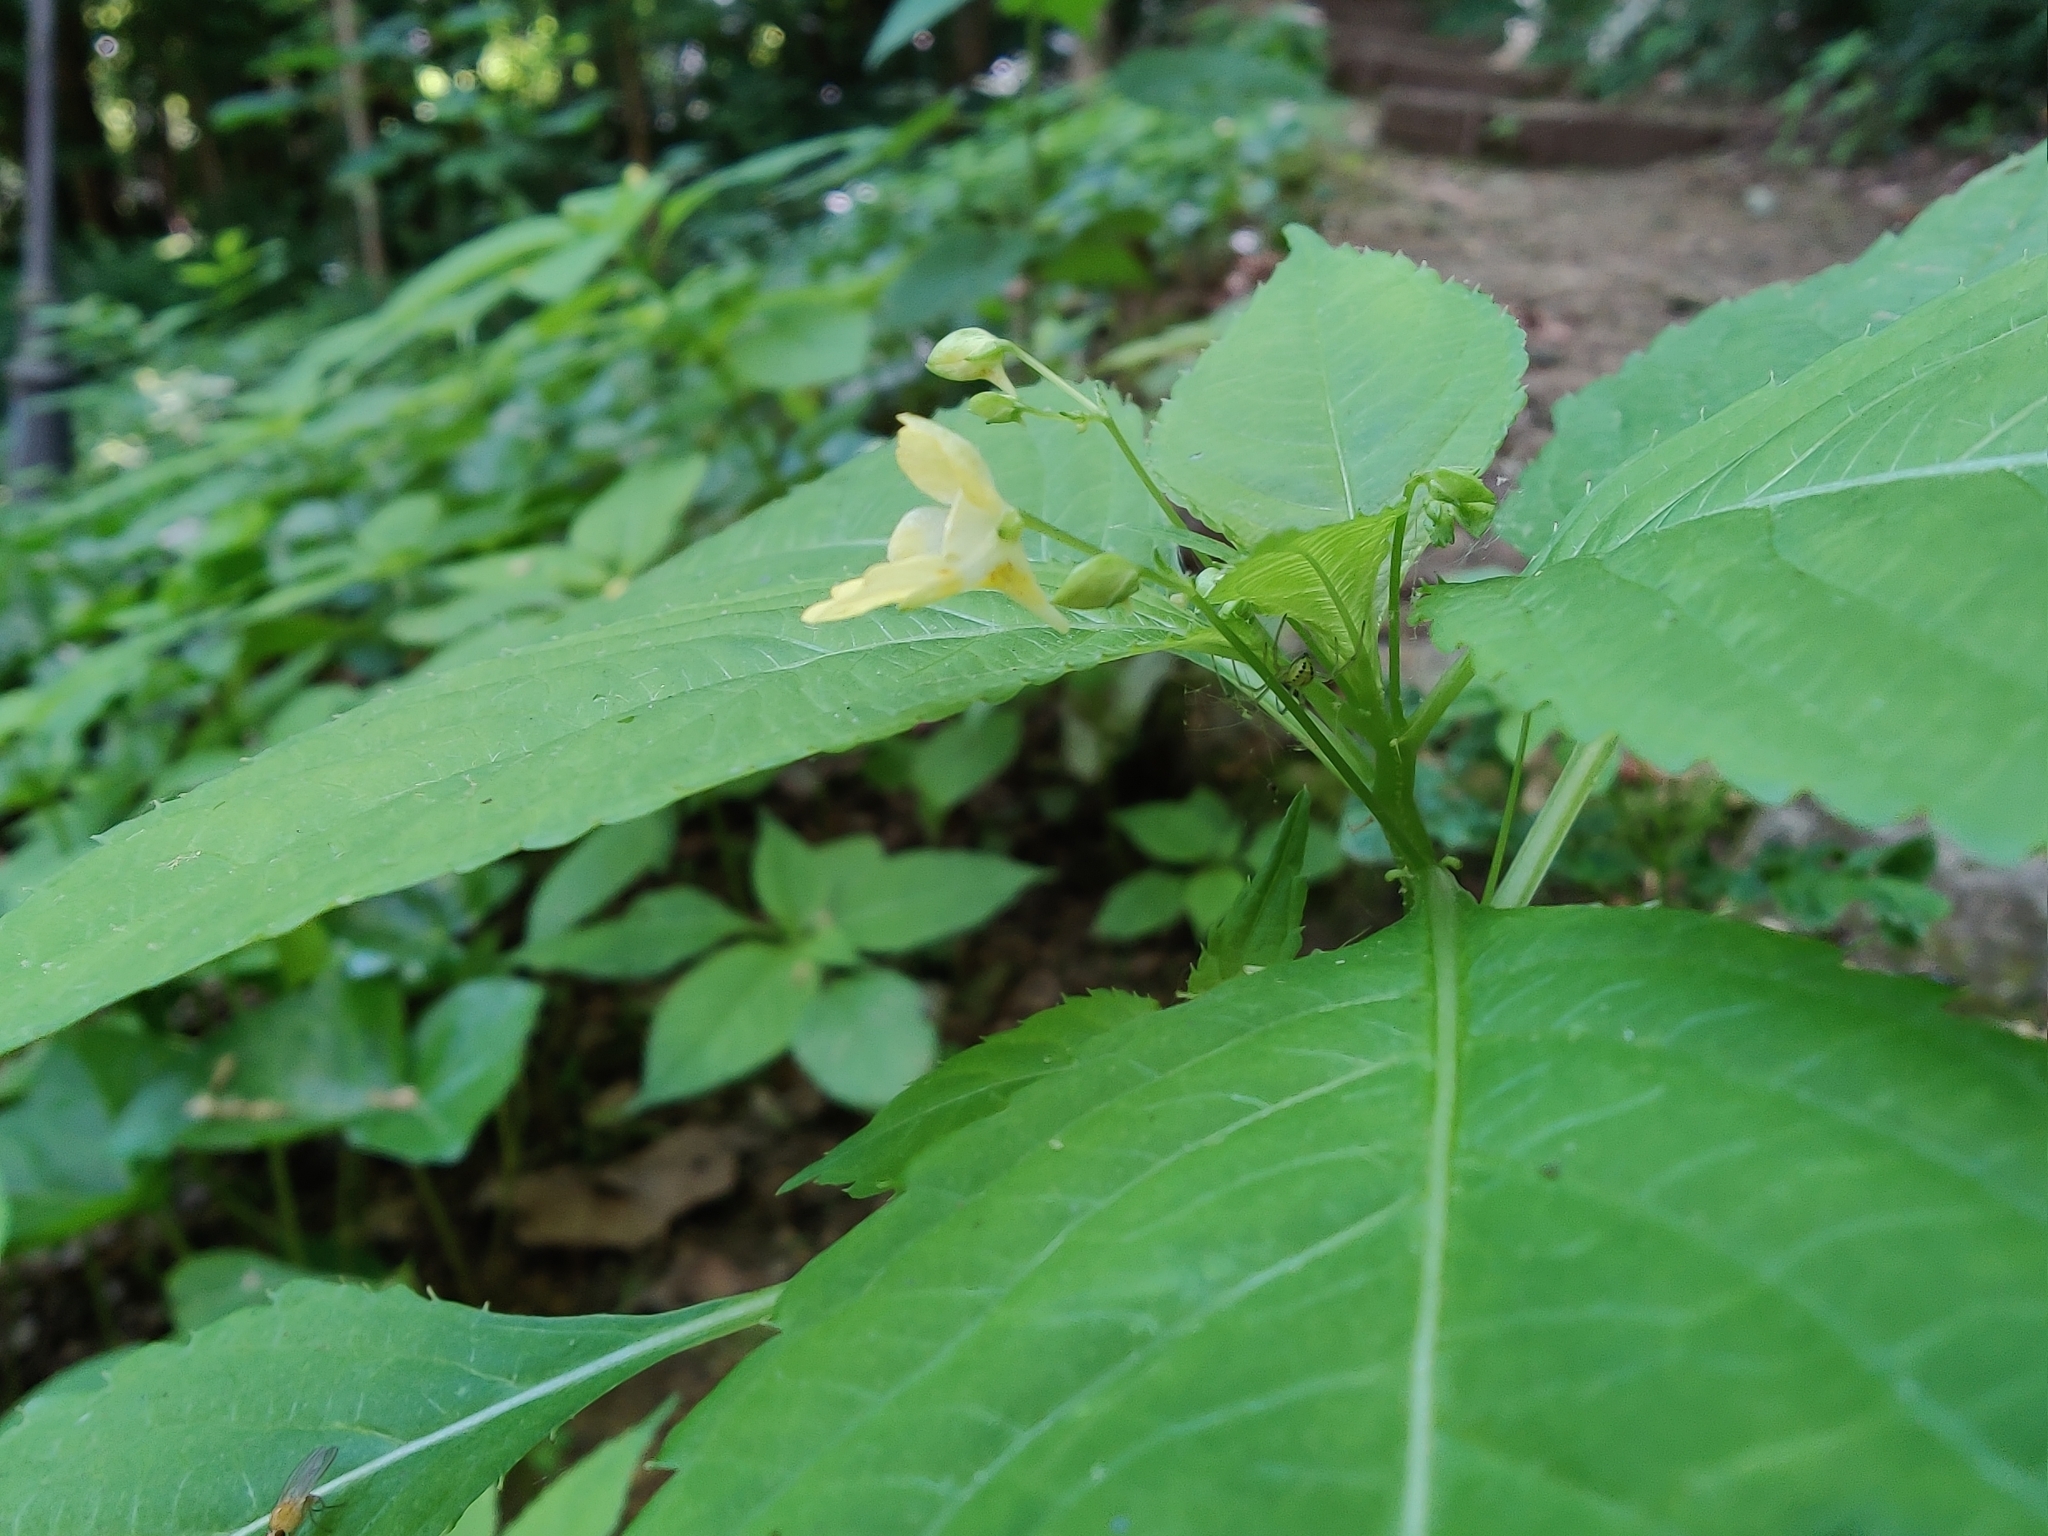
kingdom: Plantae
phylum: Tracheophyta
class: Magnoliopsida
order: Ericales
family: Balsaminaceae
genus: Impatiens
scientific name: Impatiens parviflora
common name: Small balsam
